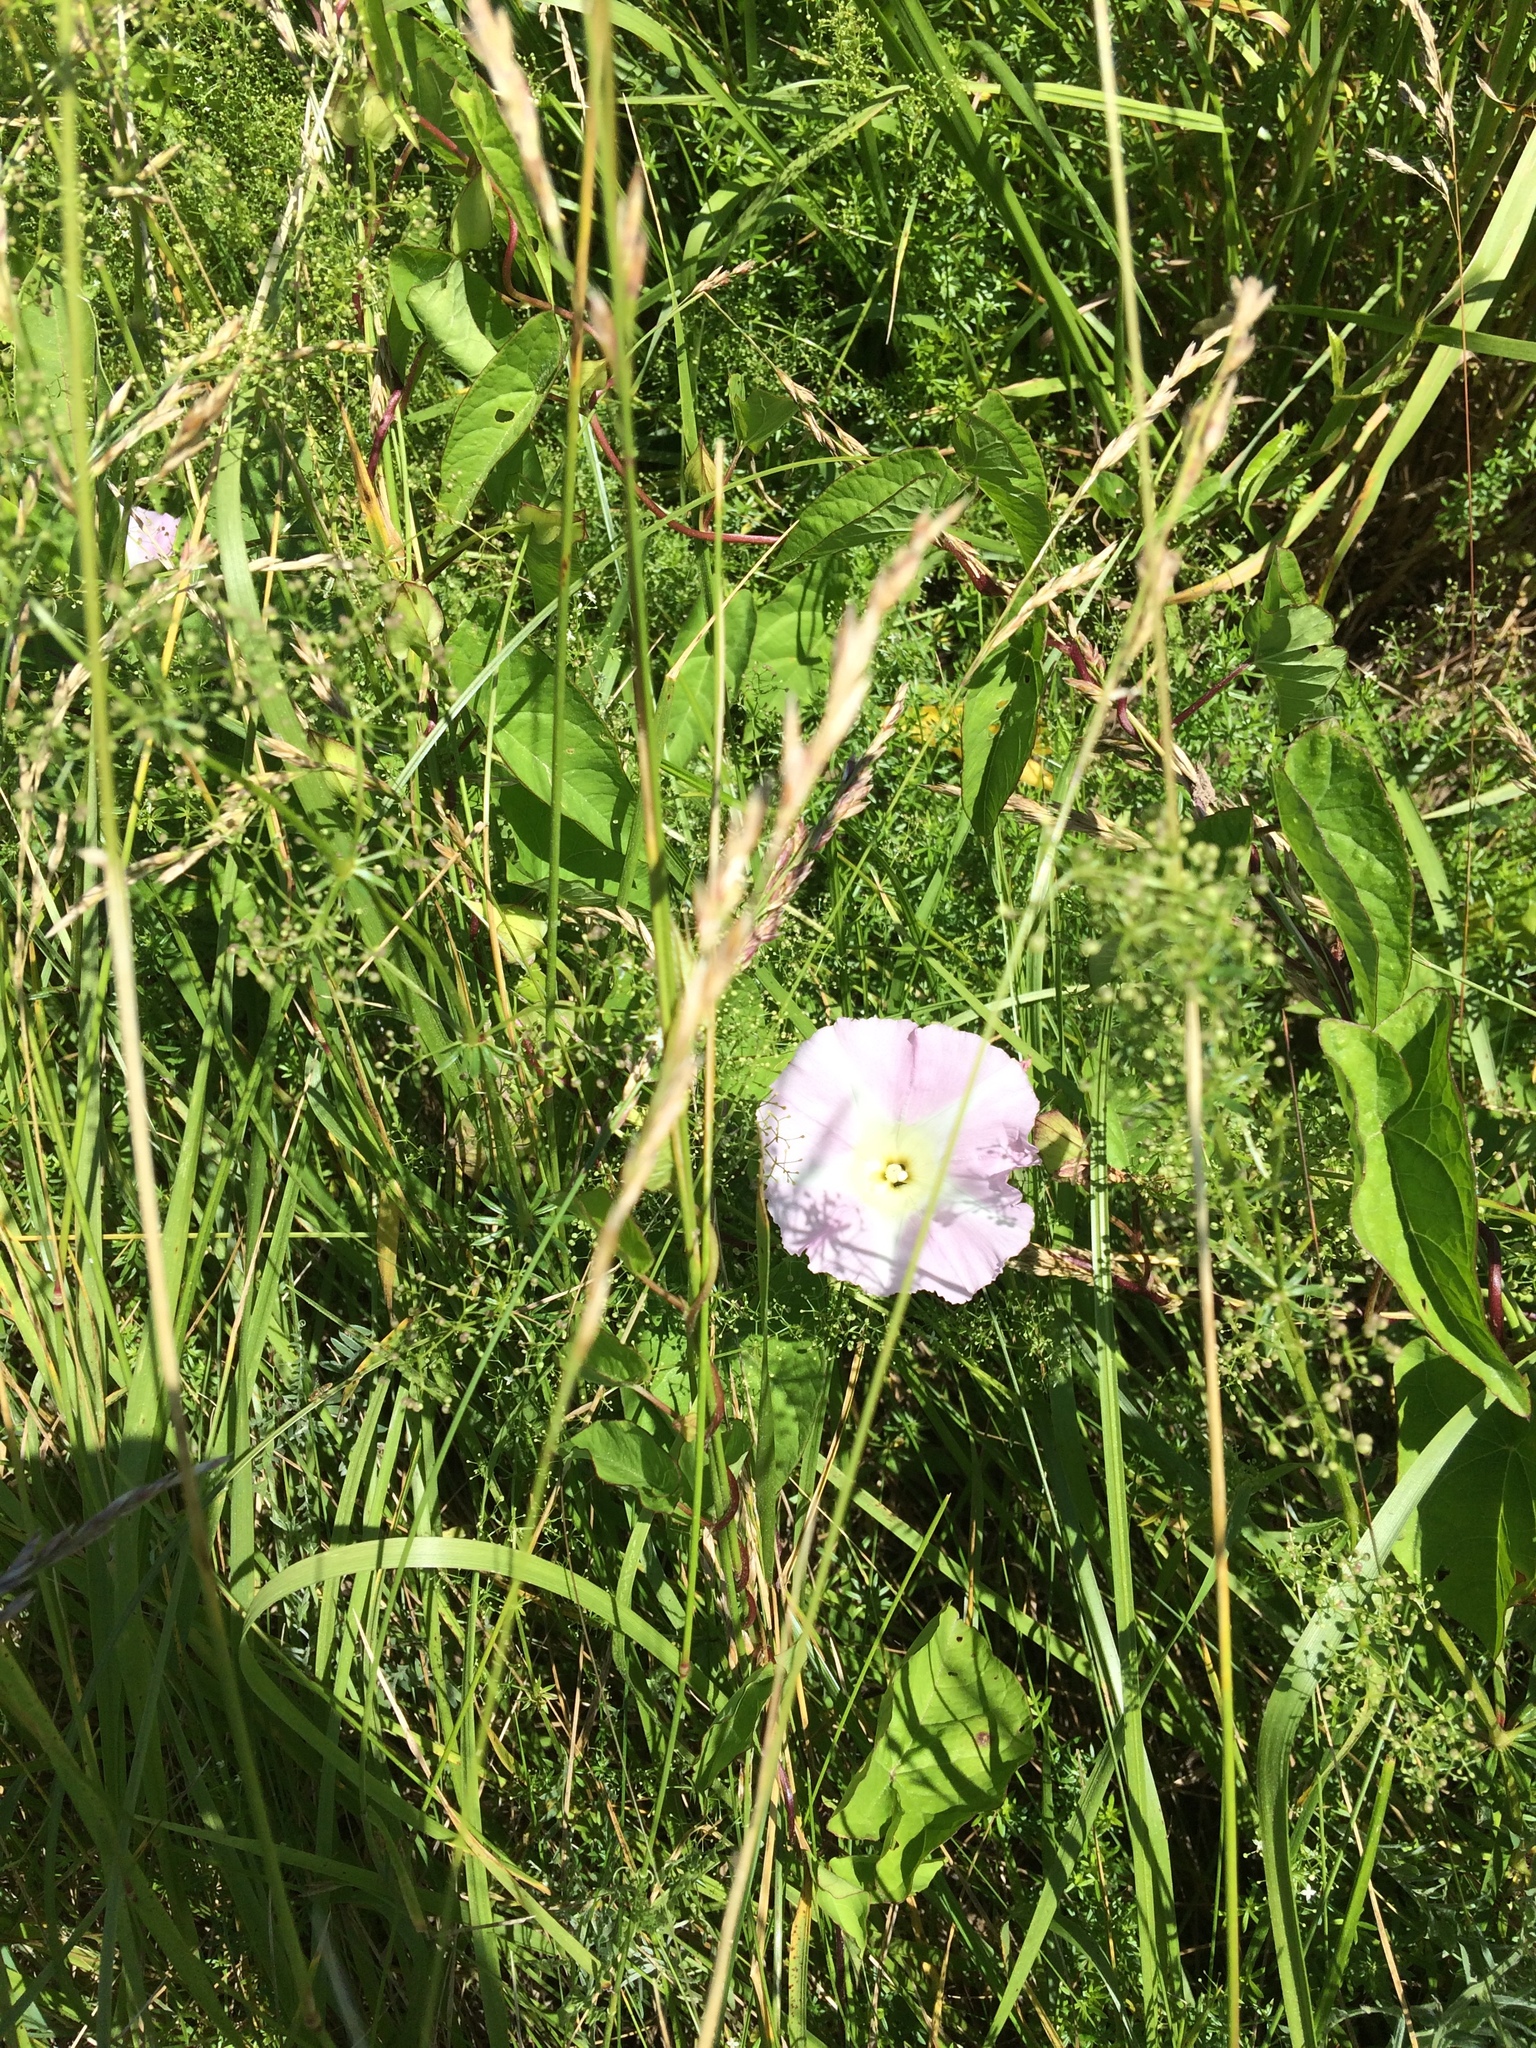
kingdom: Plantae
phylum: Tracheophyta
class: Magnoliopsida
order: Solanales
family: Convolvulaceae
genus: Calystegia
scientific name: Calystegia sepium
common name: Hedge bindweed
